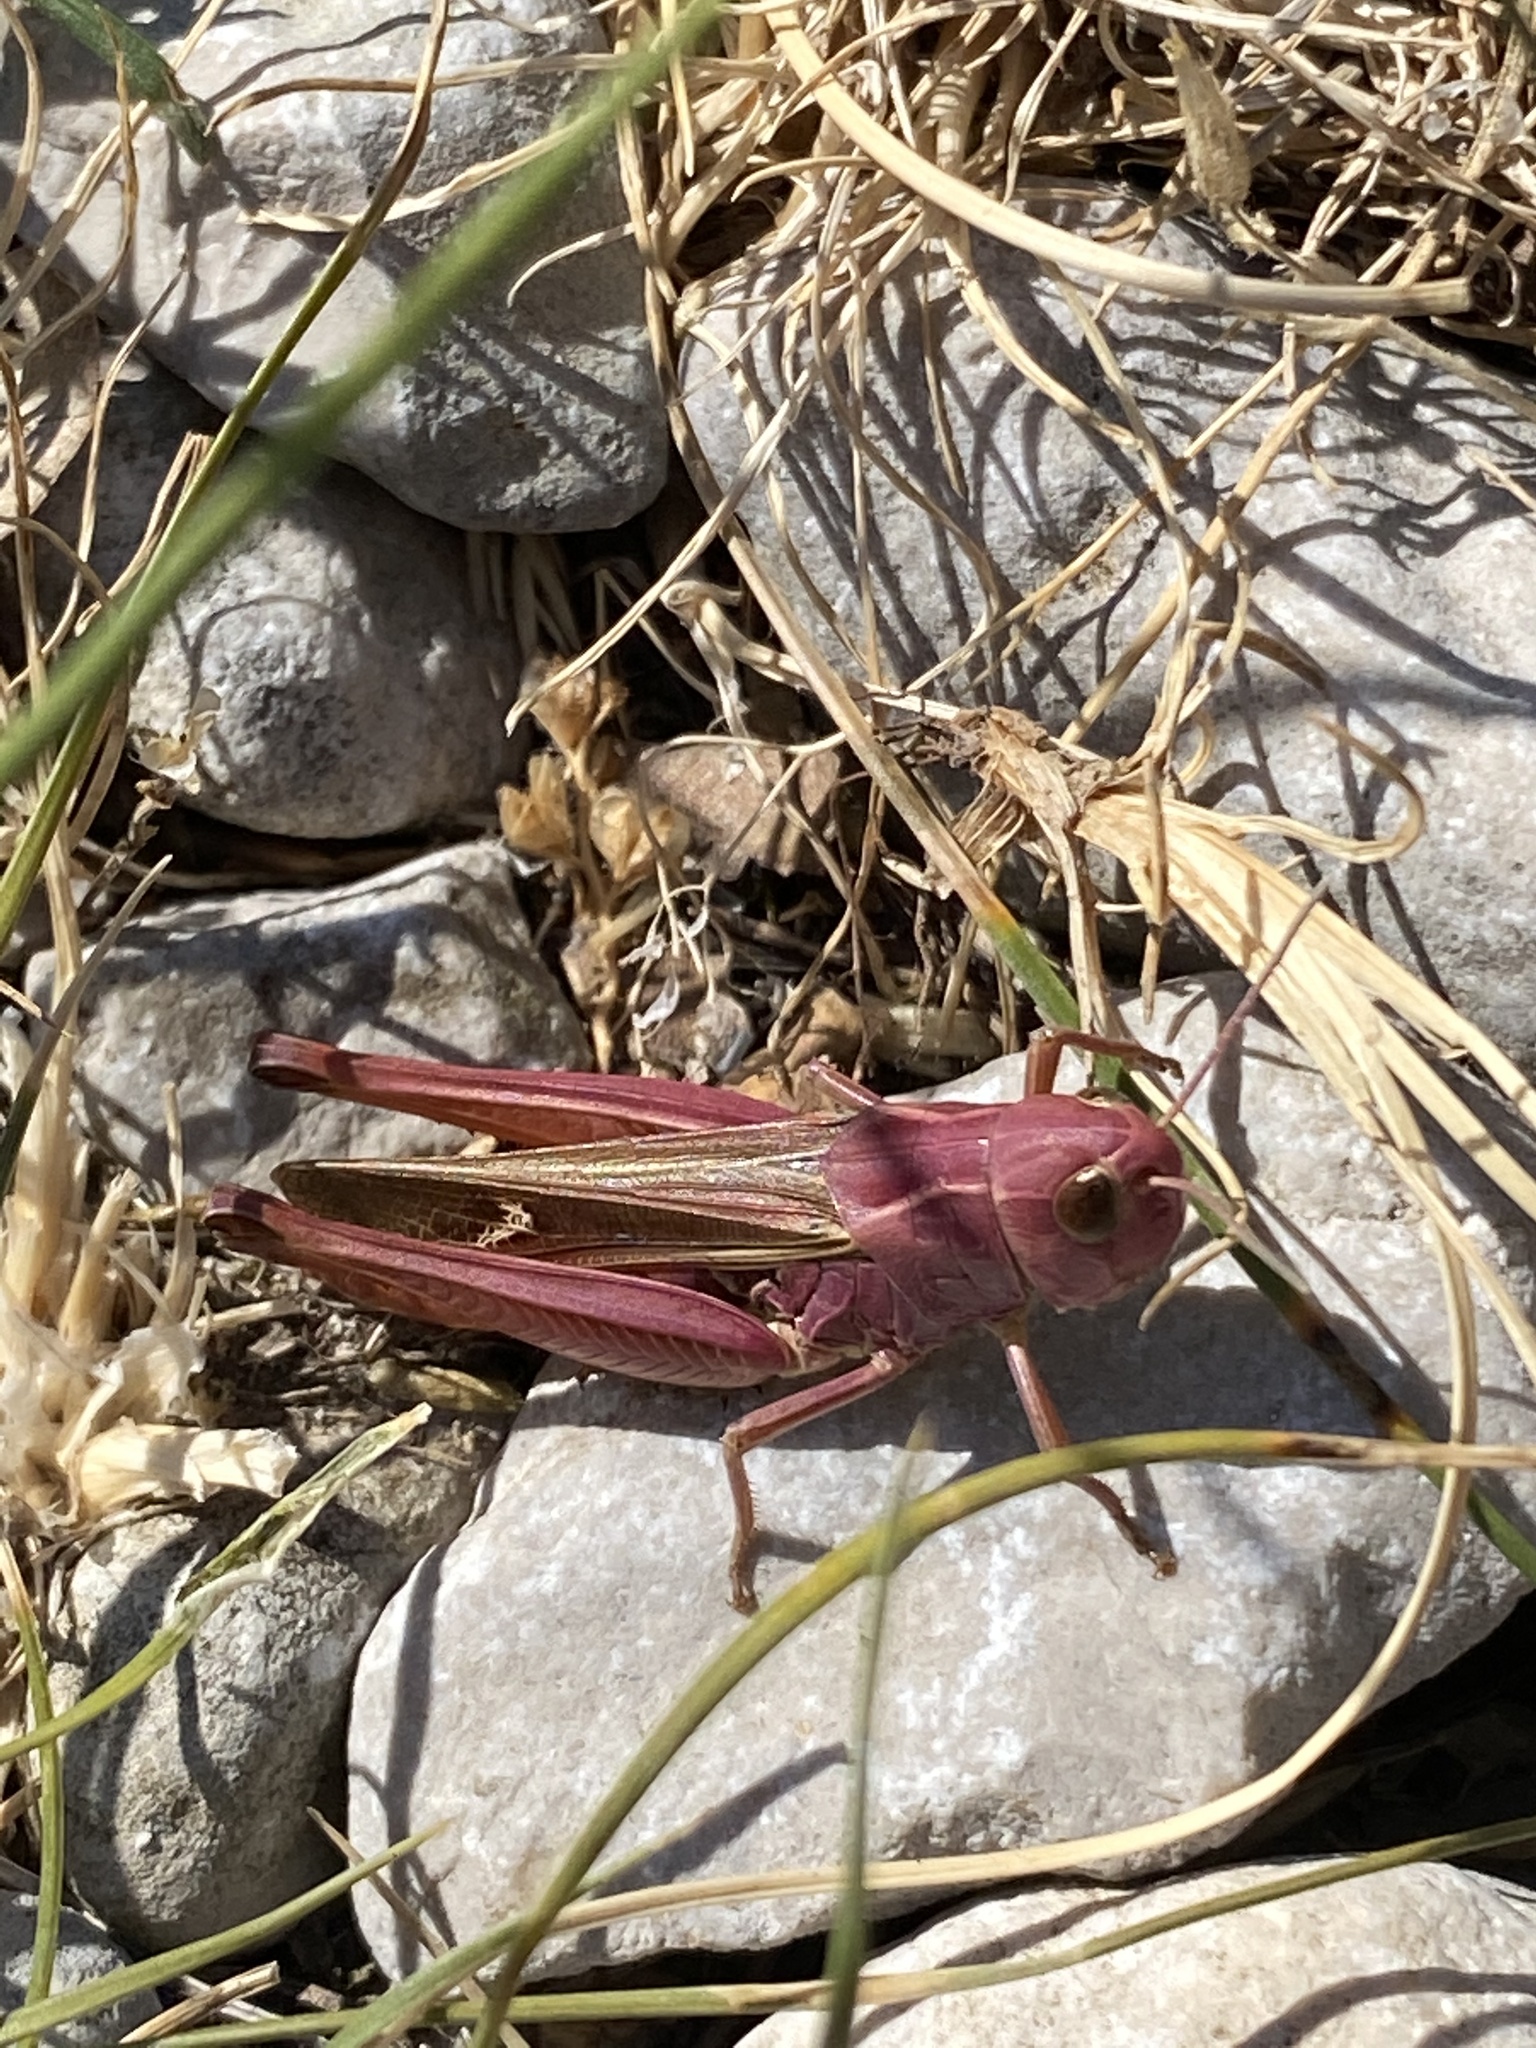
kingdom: Animalia
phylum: Arthropoda
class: Insecta
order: Orthoptera
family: Acrididae
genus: Stenobothrus
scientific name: Stenobothrus lineatus
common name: Stripe-winged grasshopper
